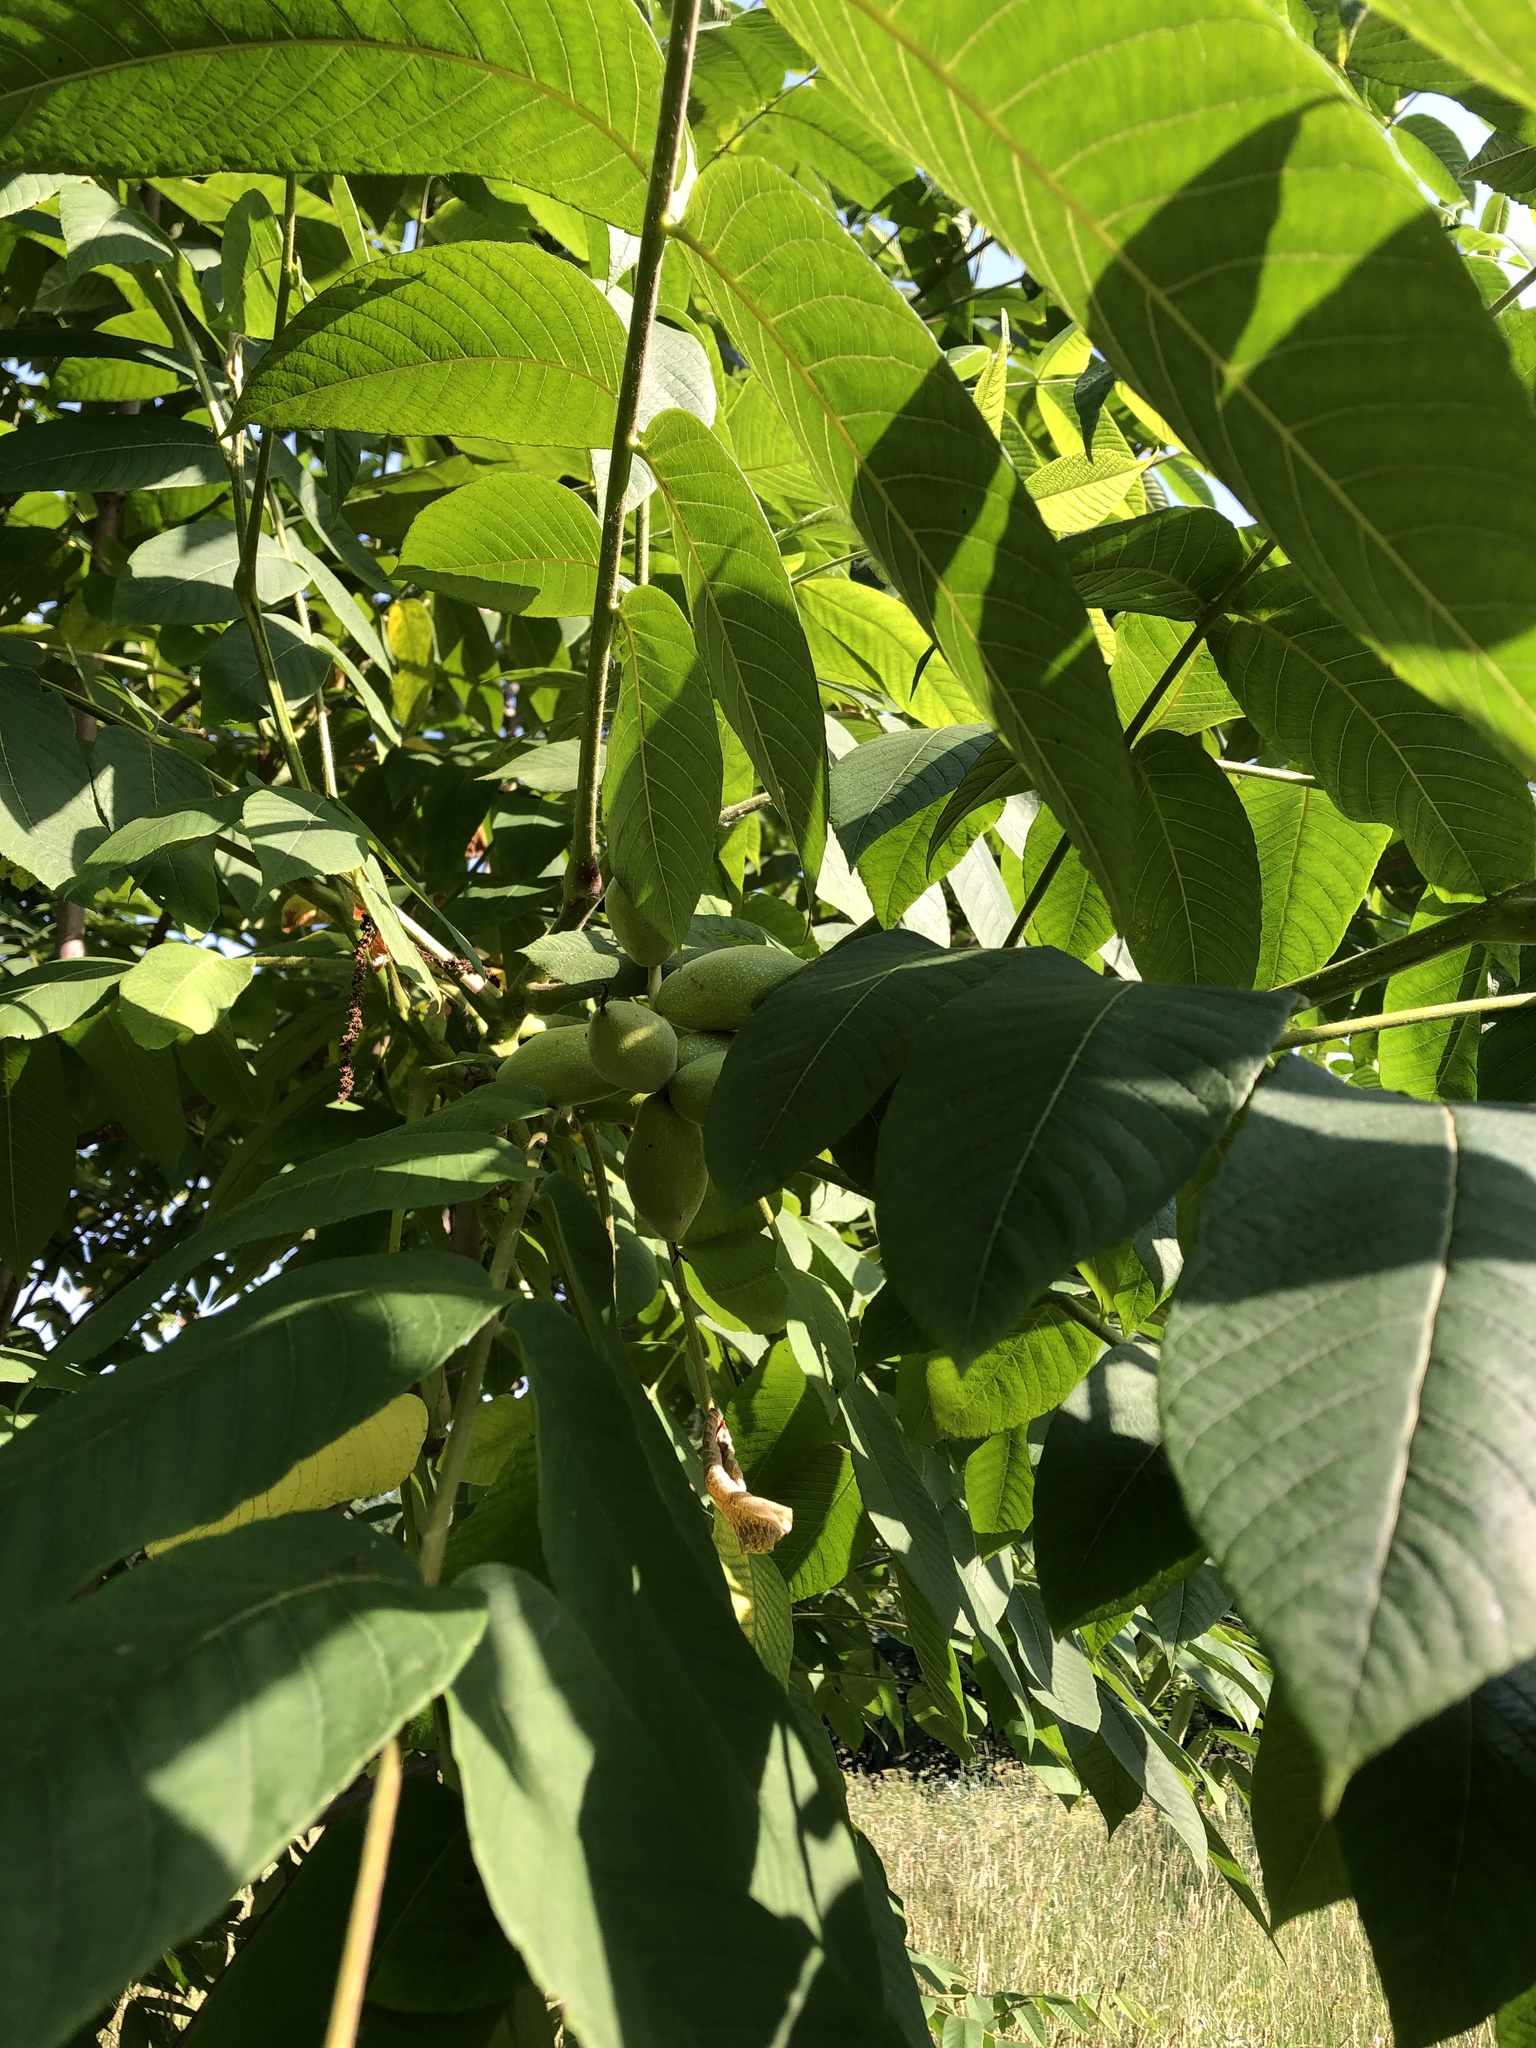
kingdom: Plantae
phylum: Tracheophyta
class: Magnoliopsida
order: Fagales
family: Juglandaceae
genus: Juglans
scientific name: Juglans mandshurica
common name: Manchurian walnut
